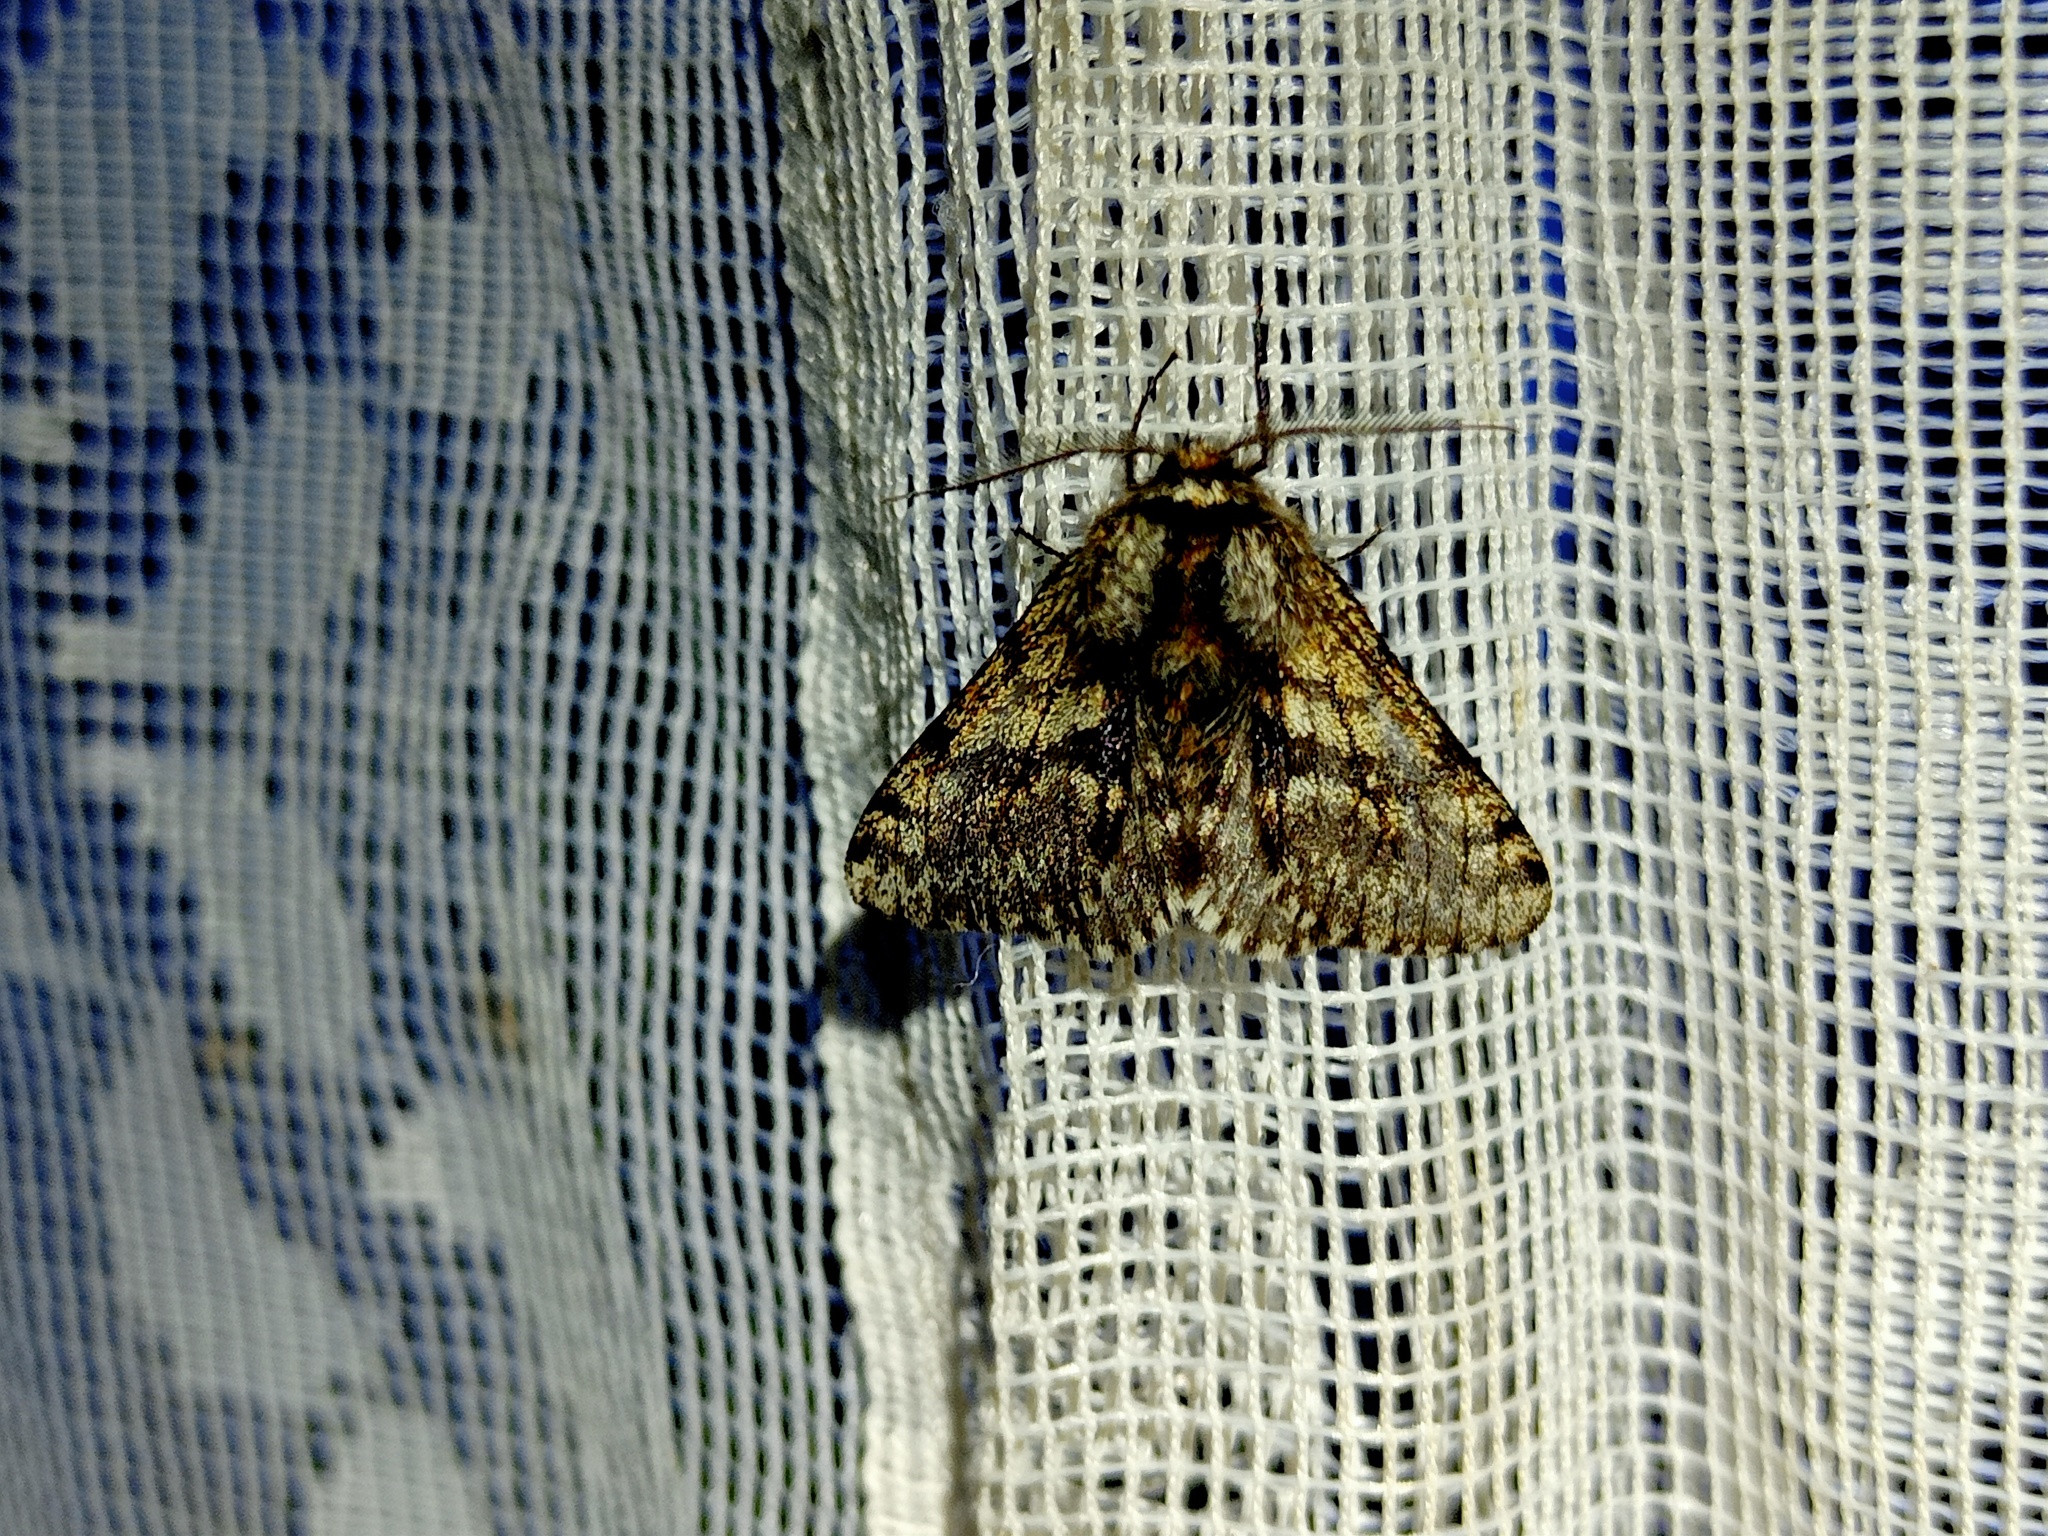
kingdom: Animalia
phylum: Arthropoda
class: Insecta
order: Lepidoptera
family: Geometridae
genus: Lycia
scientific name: Lycia pomonaria
